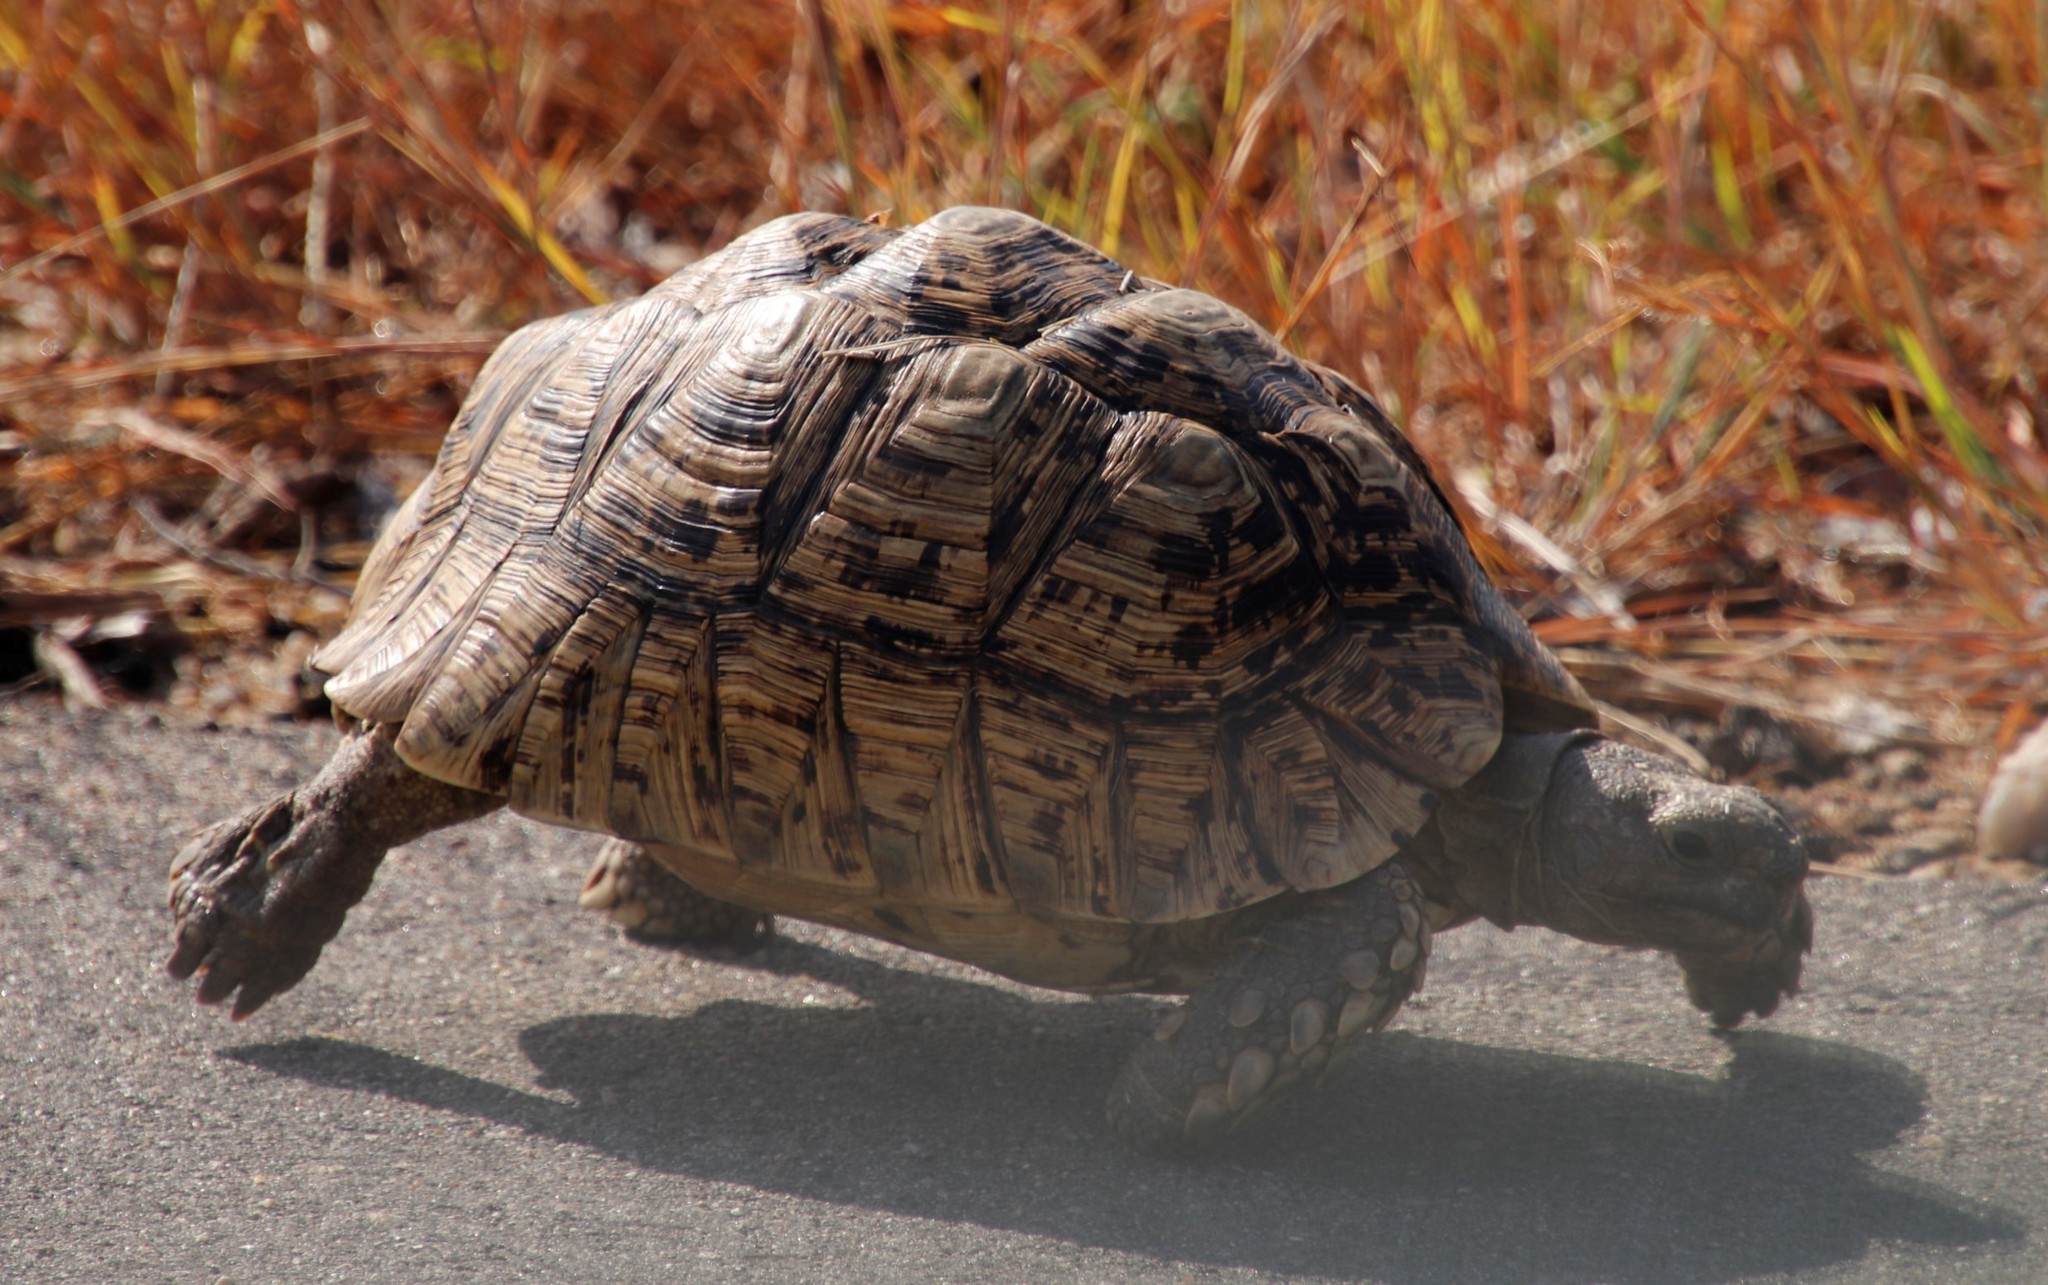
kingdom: Animalia
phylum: Chordata
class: Testudines
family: Testudinidae
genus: Stigmochelys
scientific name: Stigmochelys pardalis
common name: Leopard tortoise
